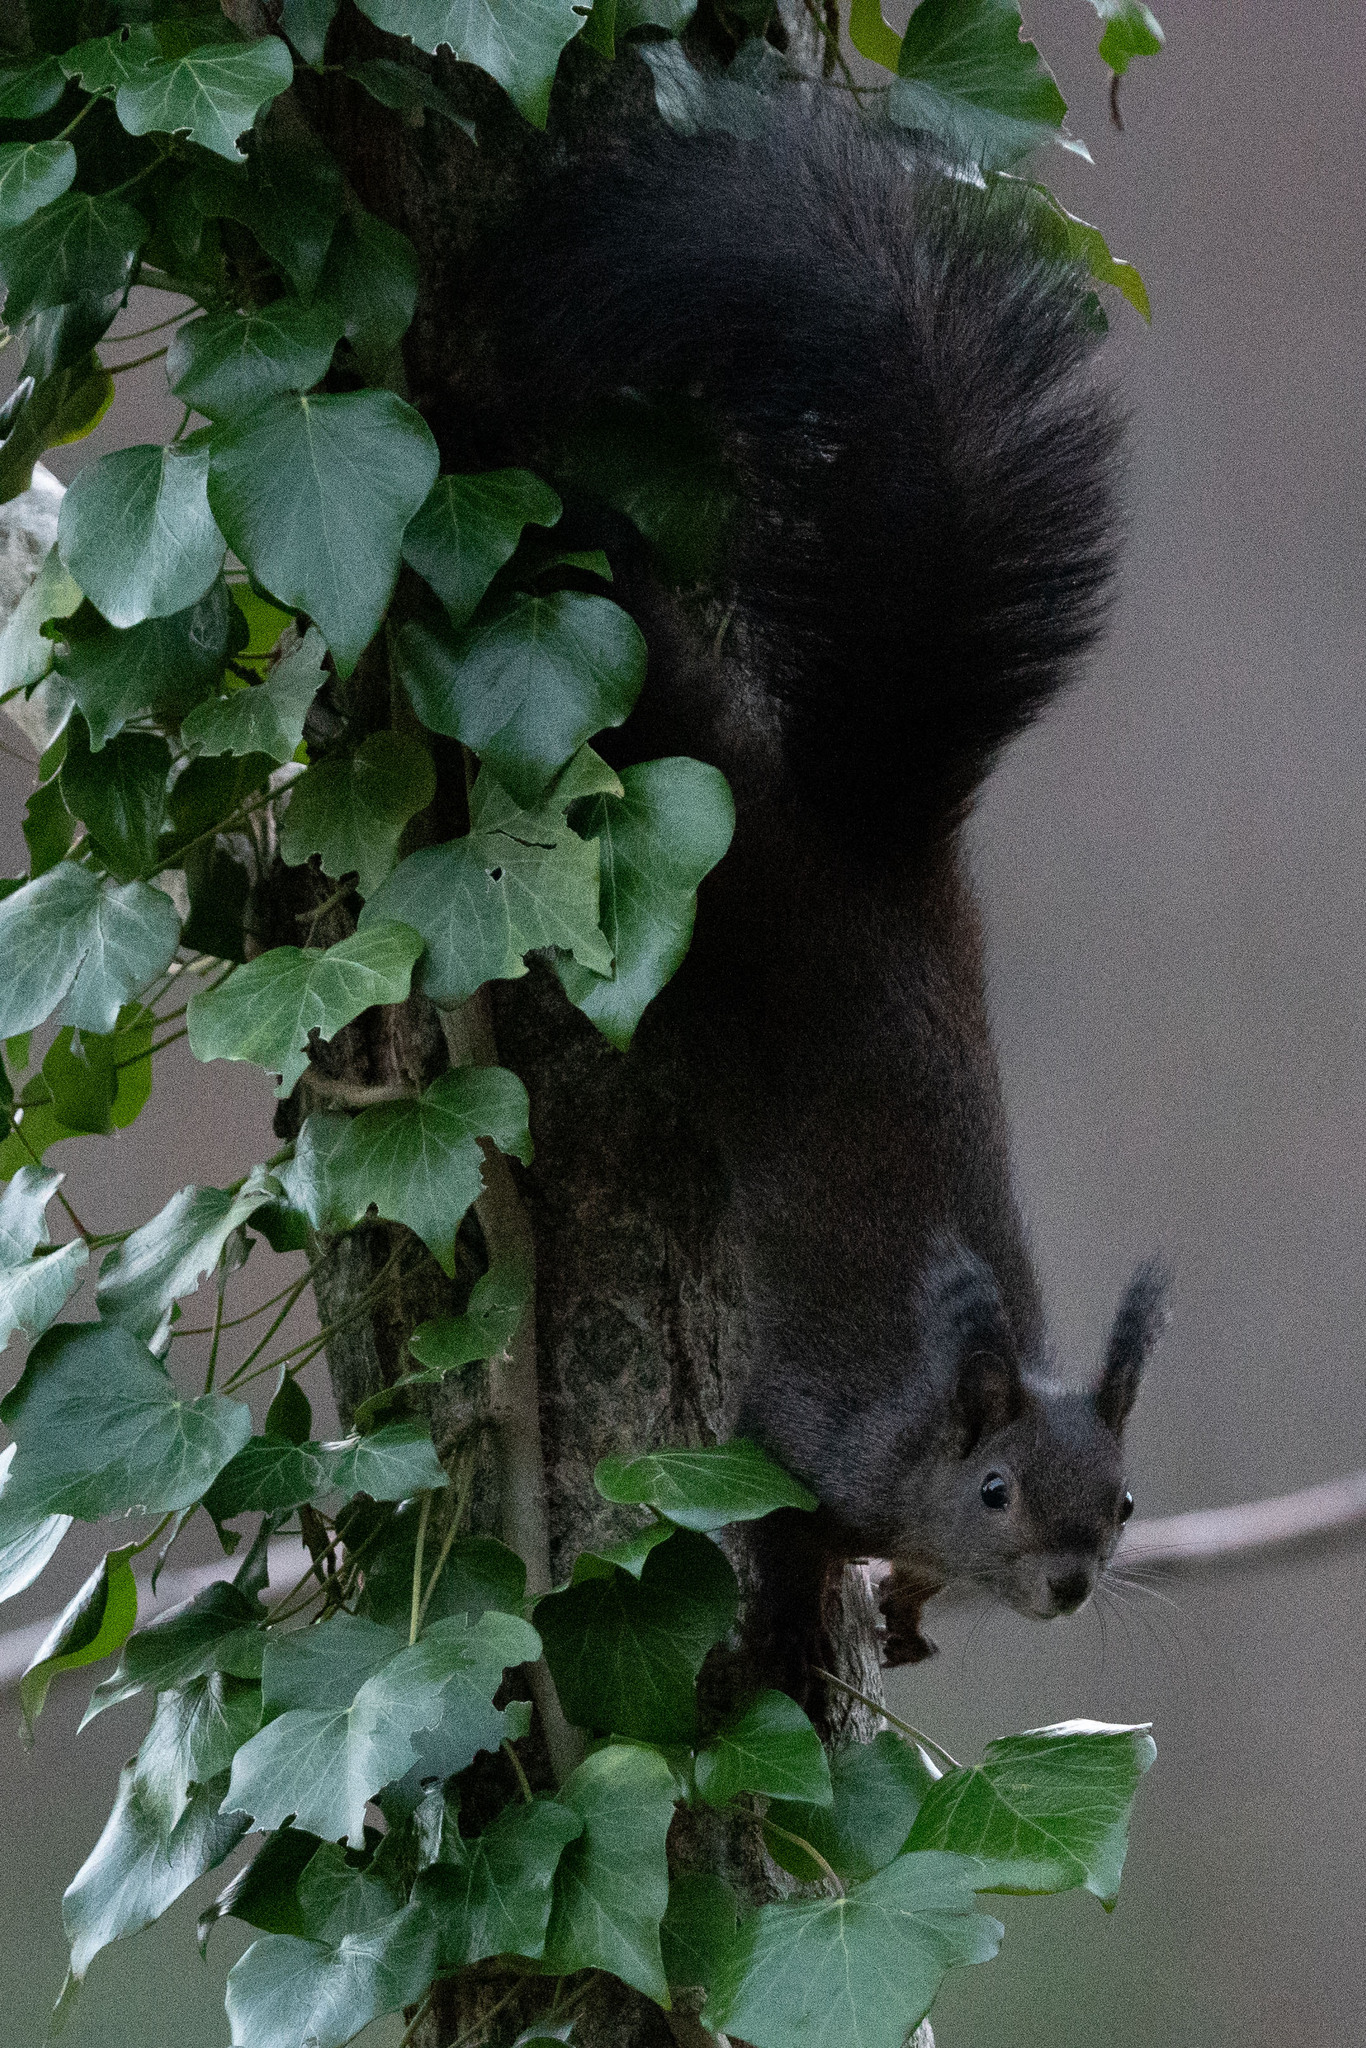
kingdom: Animalia
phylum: Chordata
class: Mammalia
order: Rodentia
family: Sciuridae
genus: Sciurus
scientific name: Sciurus vulgaris
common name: Eurasian red squirrel
